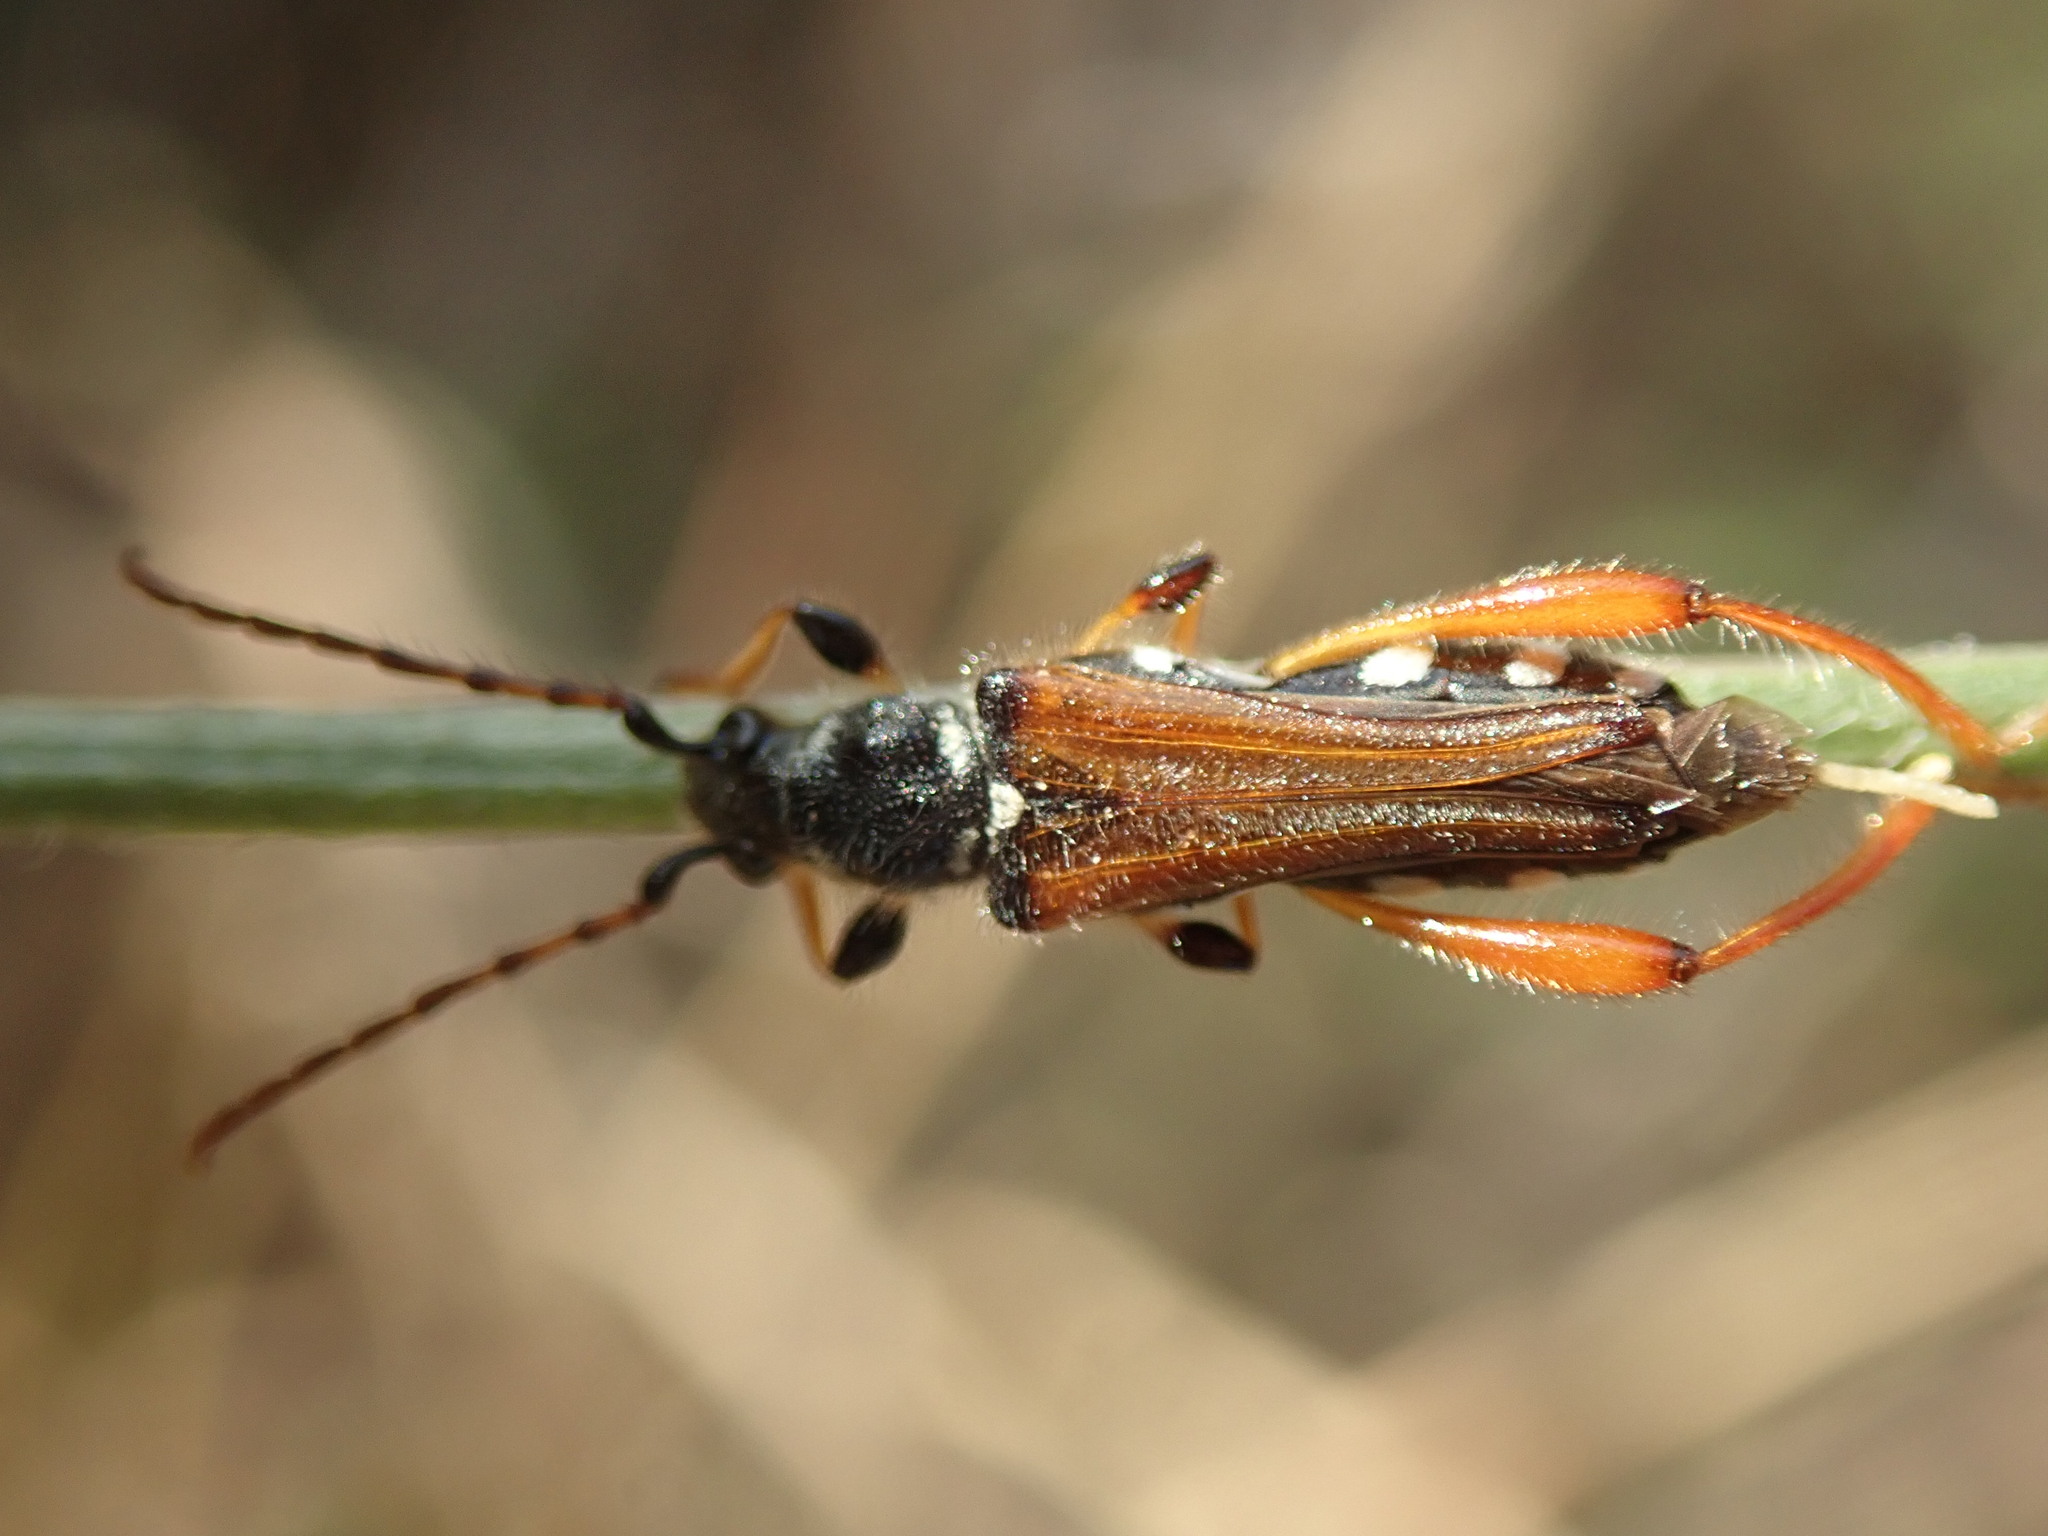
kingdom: Animalia
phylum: Arthropoda
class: Insecta
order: Coleoptera
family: Cerambycidae
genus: Stenopterus
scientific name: Stenopterus rufus
